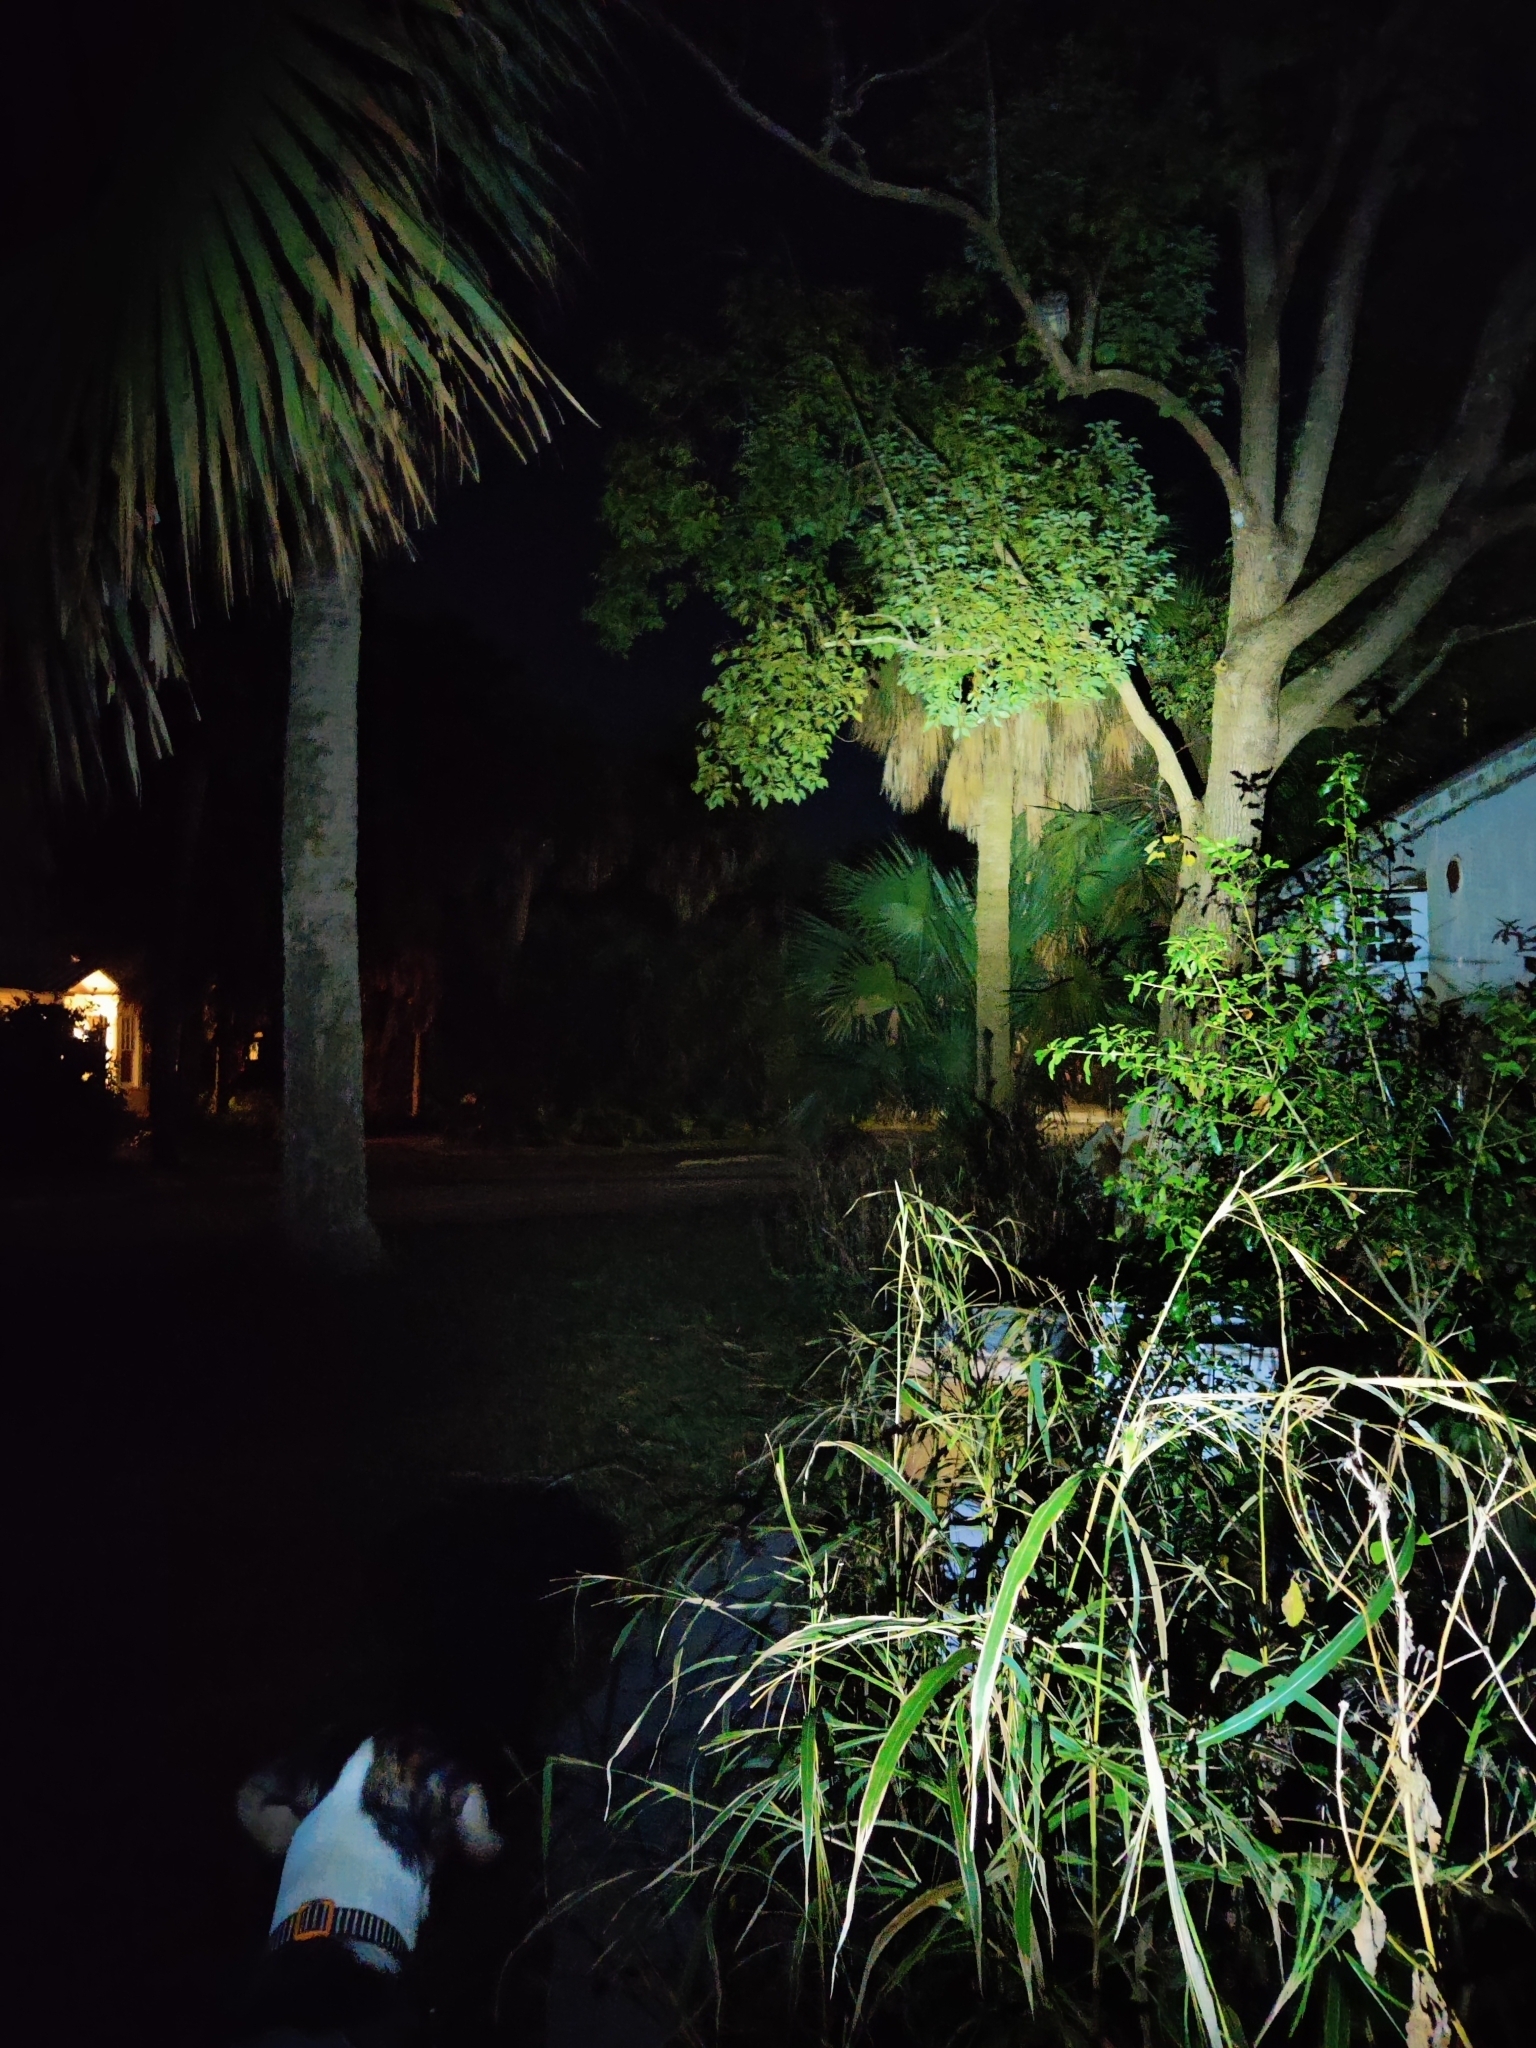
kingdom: Animalia
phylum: Chordata
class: Aves
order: Strigiformes
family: Strigidae
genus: Strix
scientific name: Strix varia
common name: Barred owl
